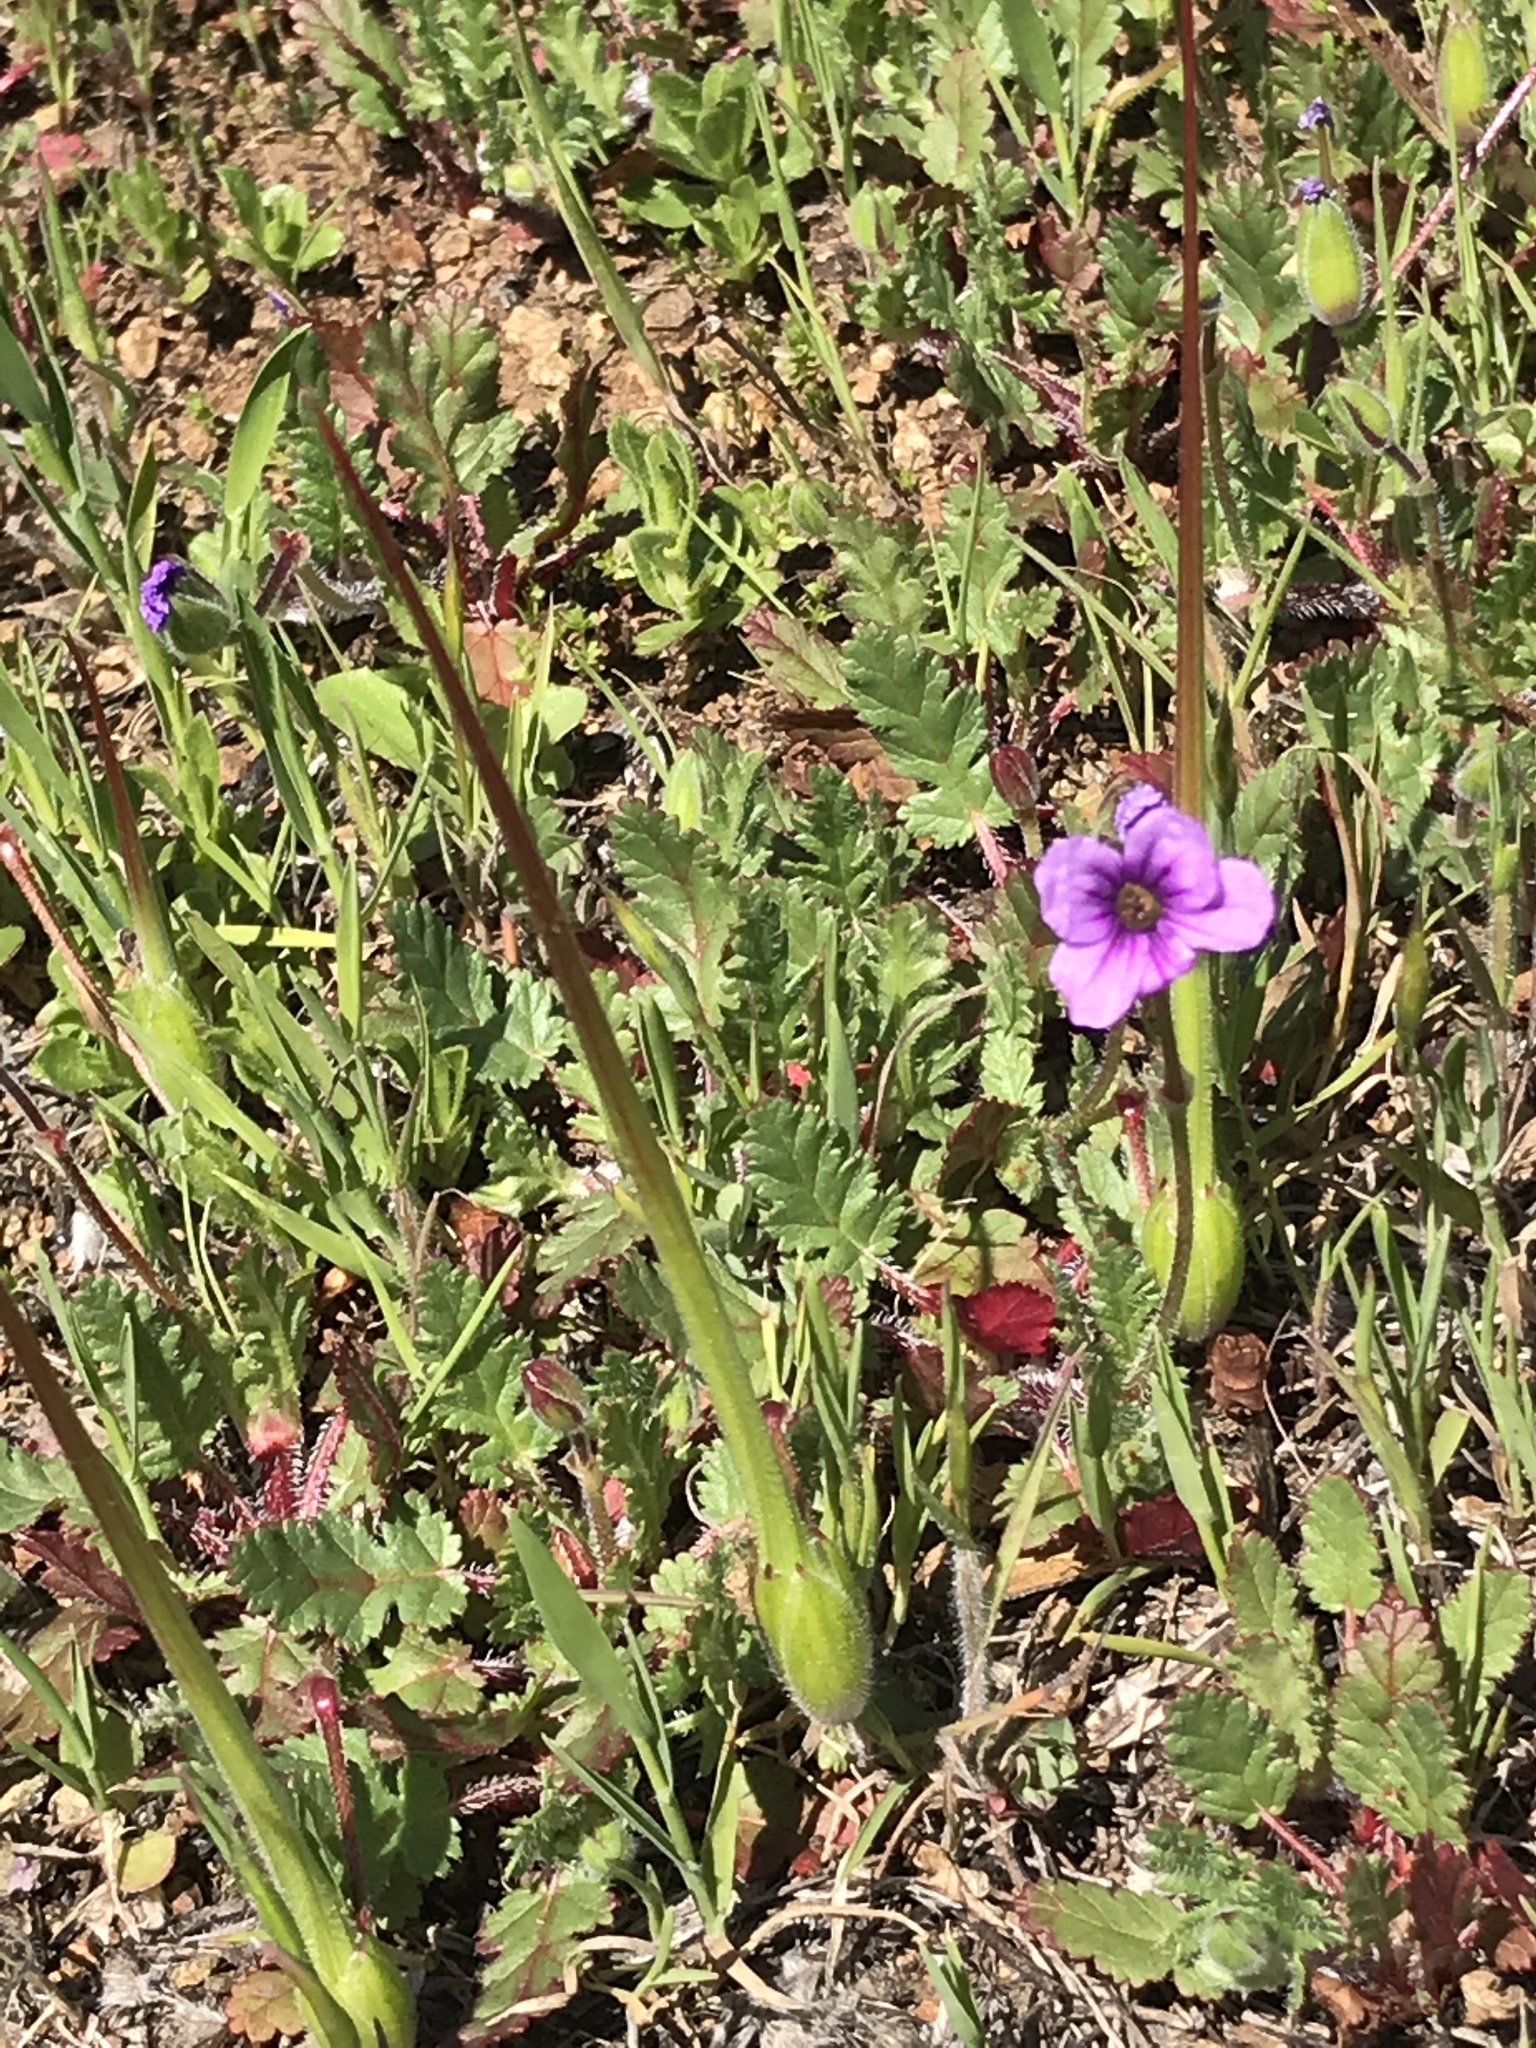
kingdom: Plantae
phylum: Tracheophyta
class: Magnoliopsida
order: Geraniales
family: Geraniaceae
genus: Erodium
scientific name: Erodium botrys
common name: Mediterranean stork's-bill
